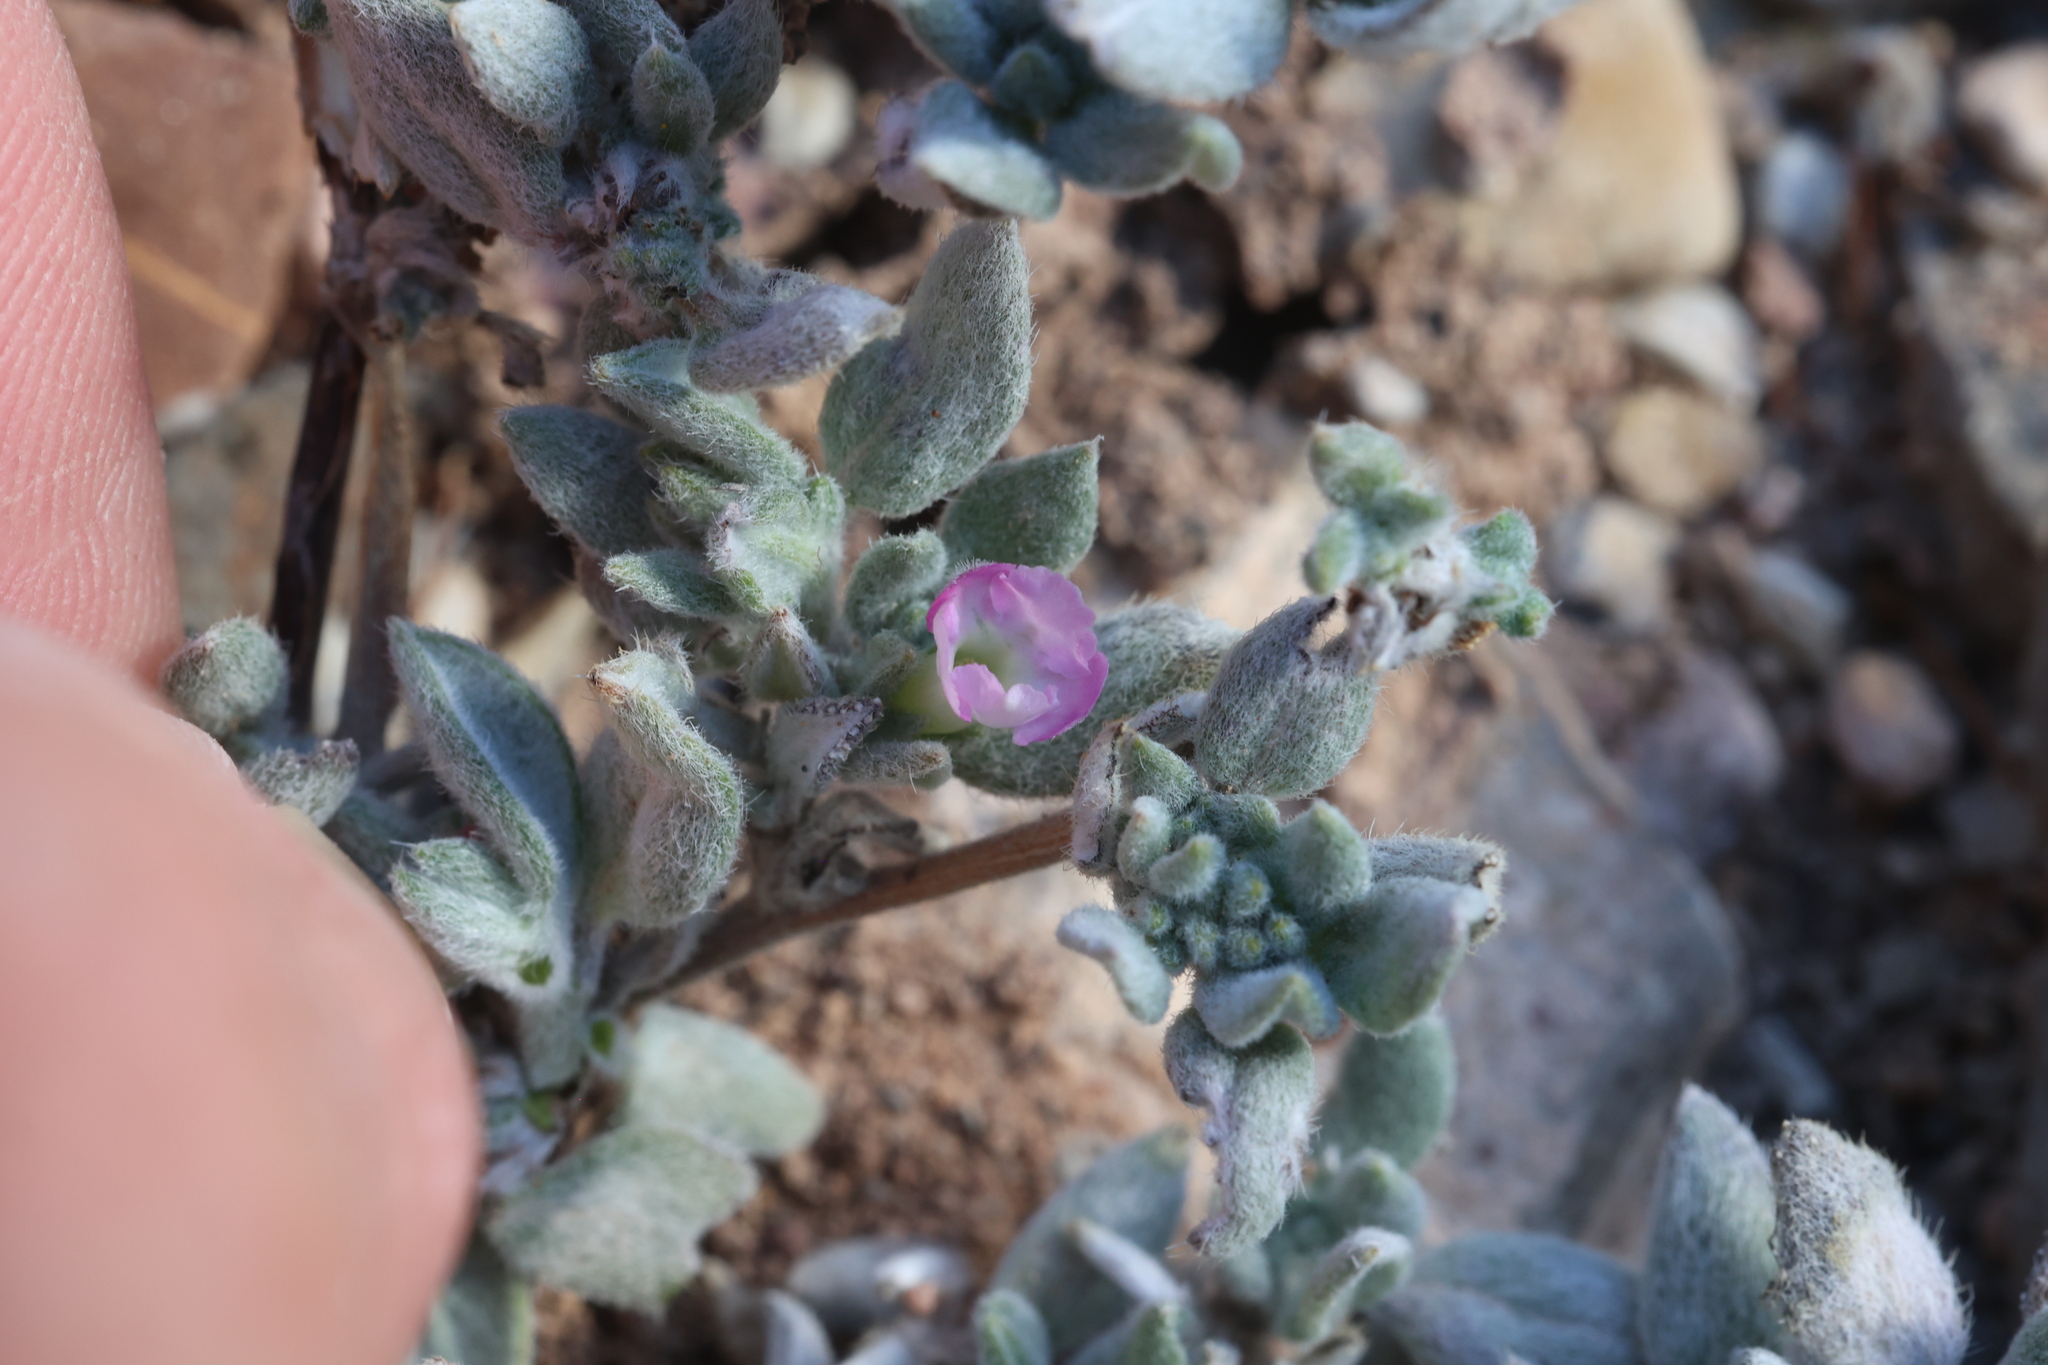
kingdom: Plantae
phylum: Tracheophyta
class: Magnoliopsida
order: Boraginales
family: Ehretiaceae
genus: Tiquilia
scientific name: Tiquilia canescens
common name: Hairy tiquilia
